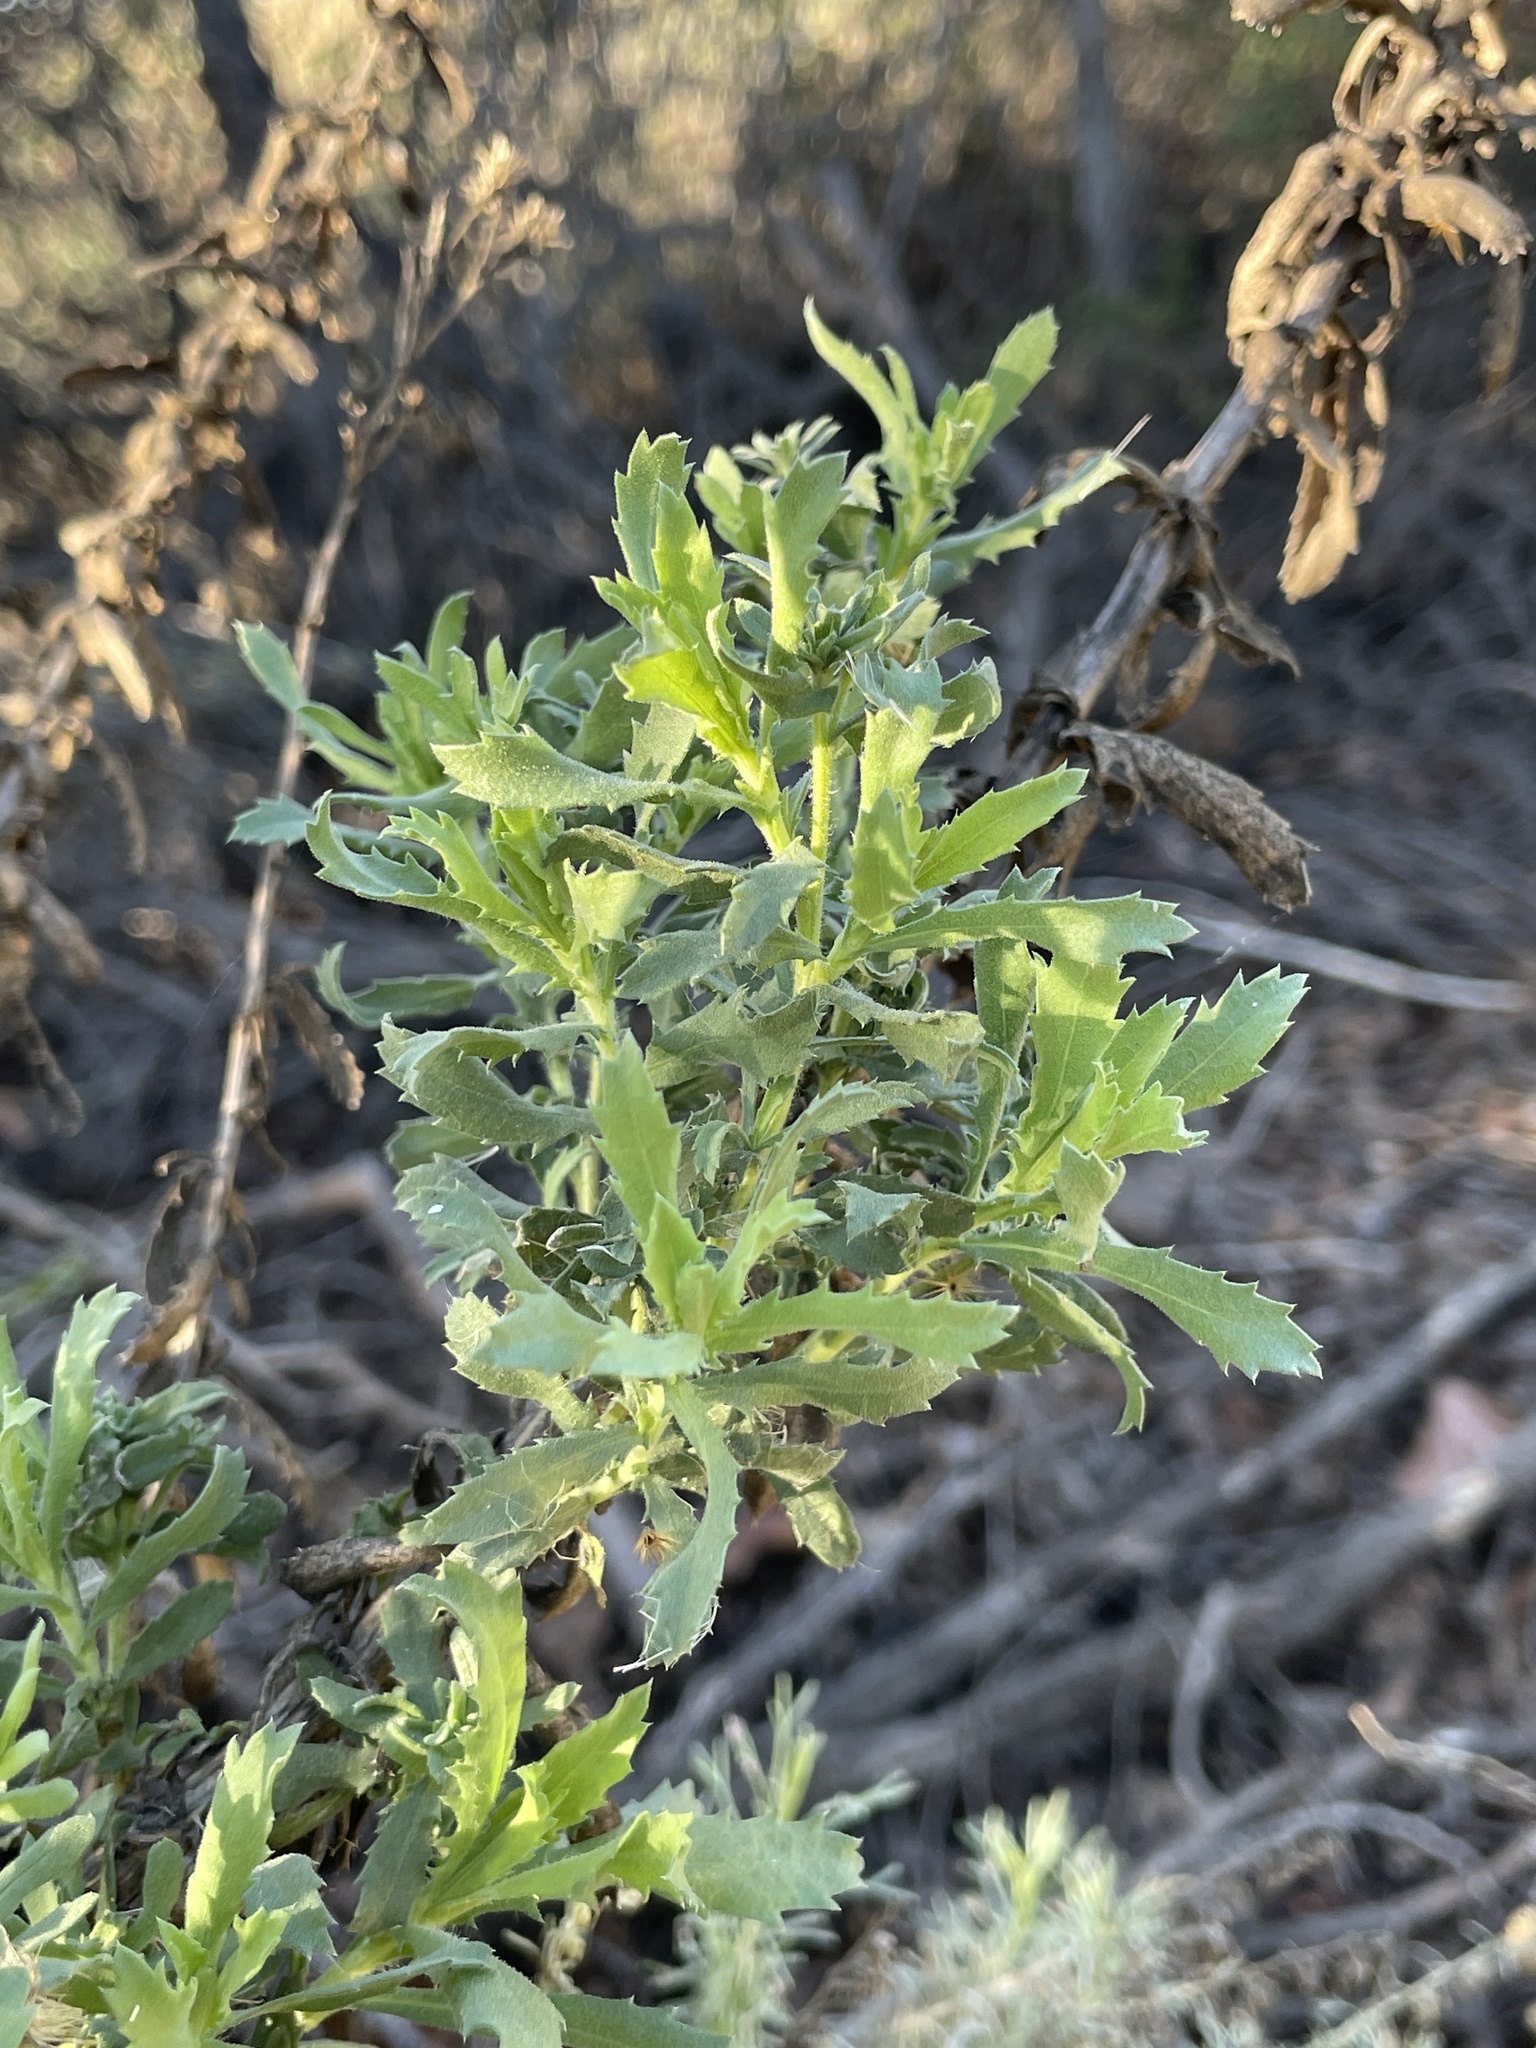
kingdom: Plantae
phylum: Tracheophyta
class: Magnoliopsida
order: Asterales
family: Asteraceae
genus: Isocoma
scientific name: Isocoma menziesii
